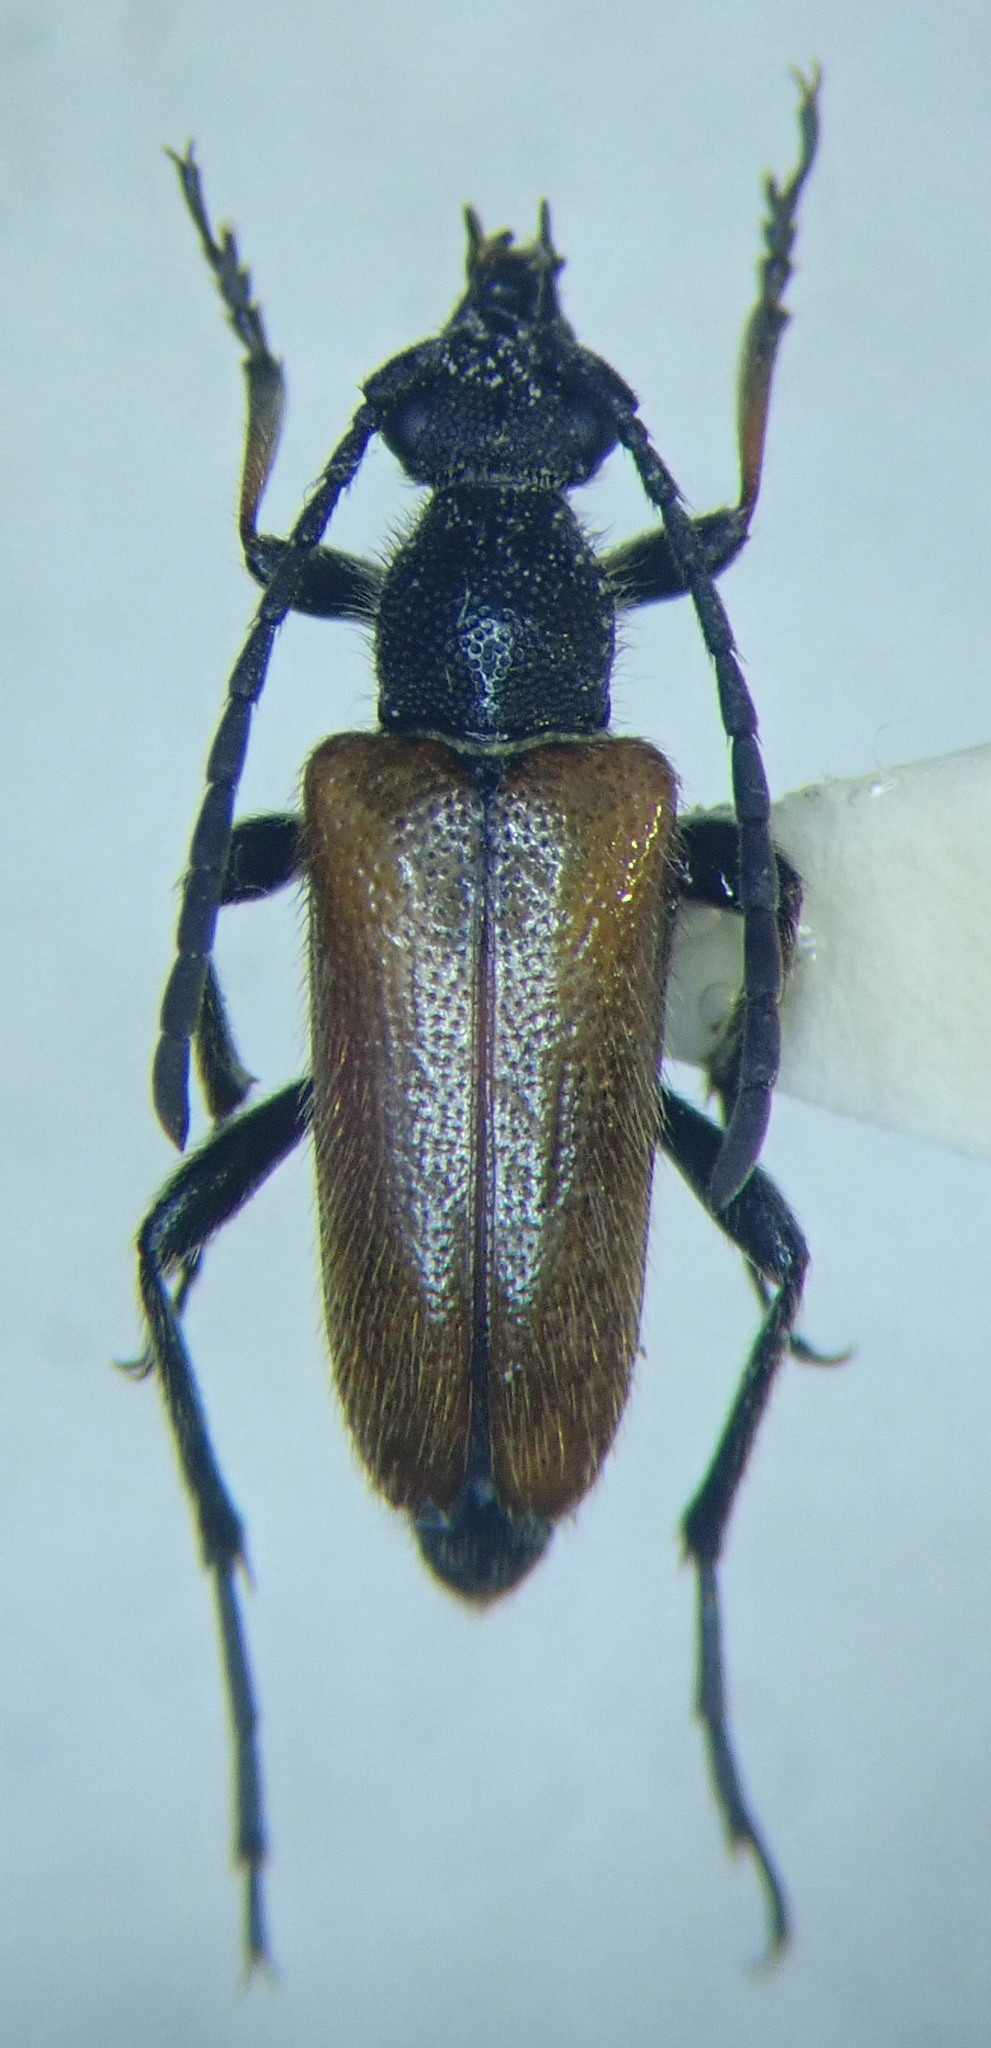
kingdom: Animalia
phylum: Arthropoda
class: Insecta
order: Coleoptera
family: Cerambycidae
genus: Pseudovadonia
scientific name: Pseudovadonia livida
